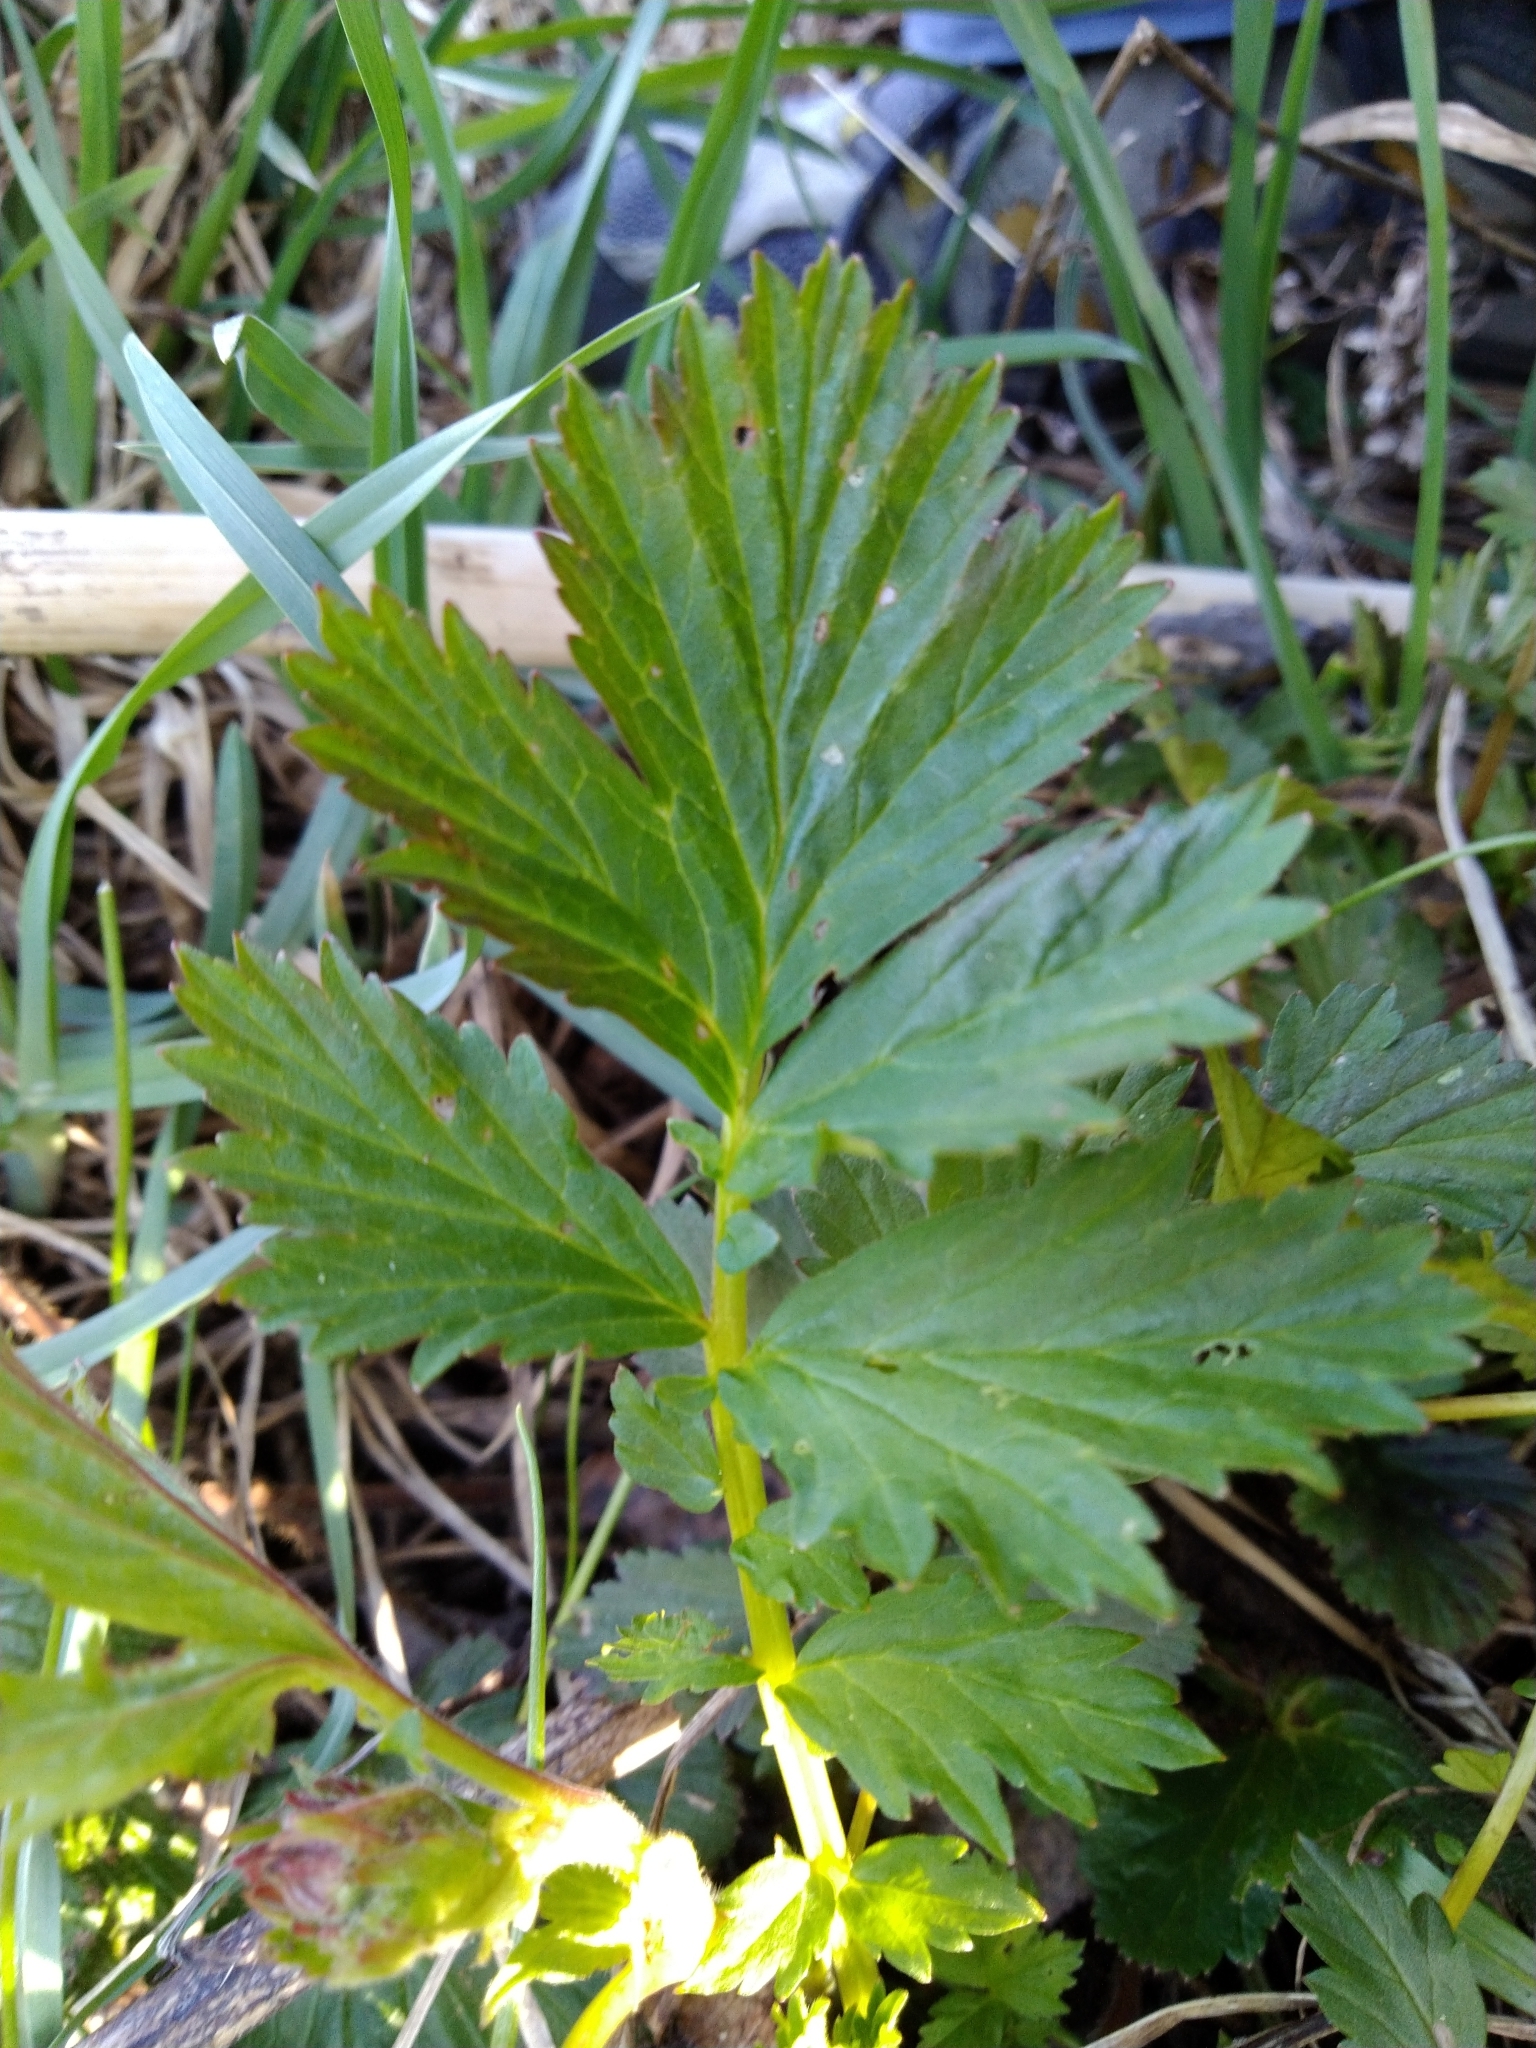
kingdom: Plantae
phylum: Tracheophyta
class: Magnoliopsida
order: Rosales
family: Rosaceae
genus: Geum
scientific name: Geum rivale
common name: Water avens
